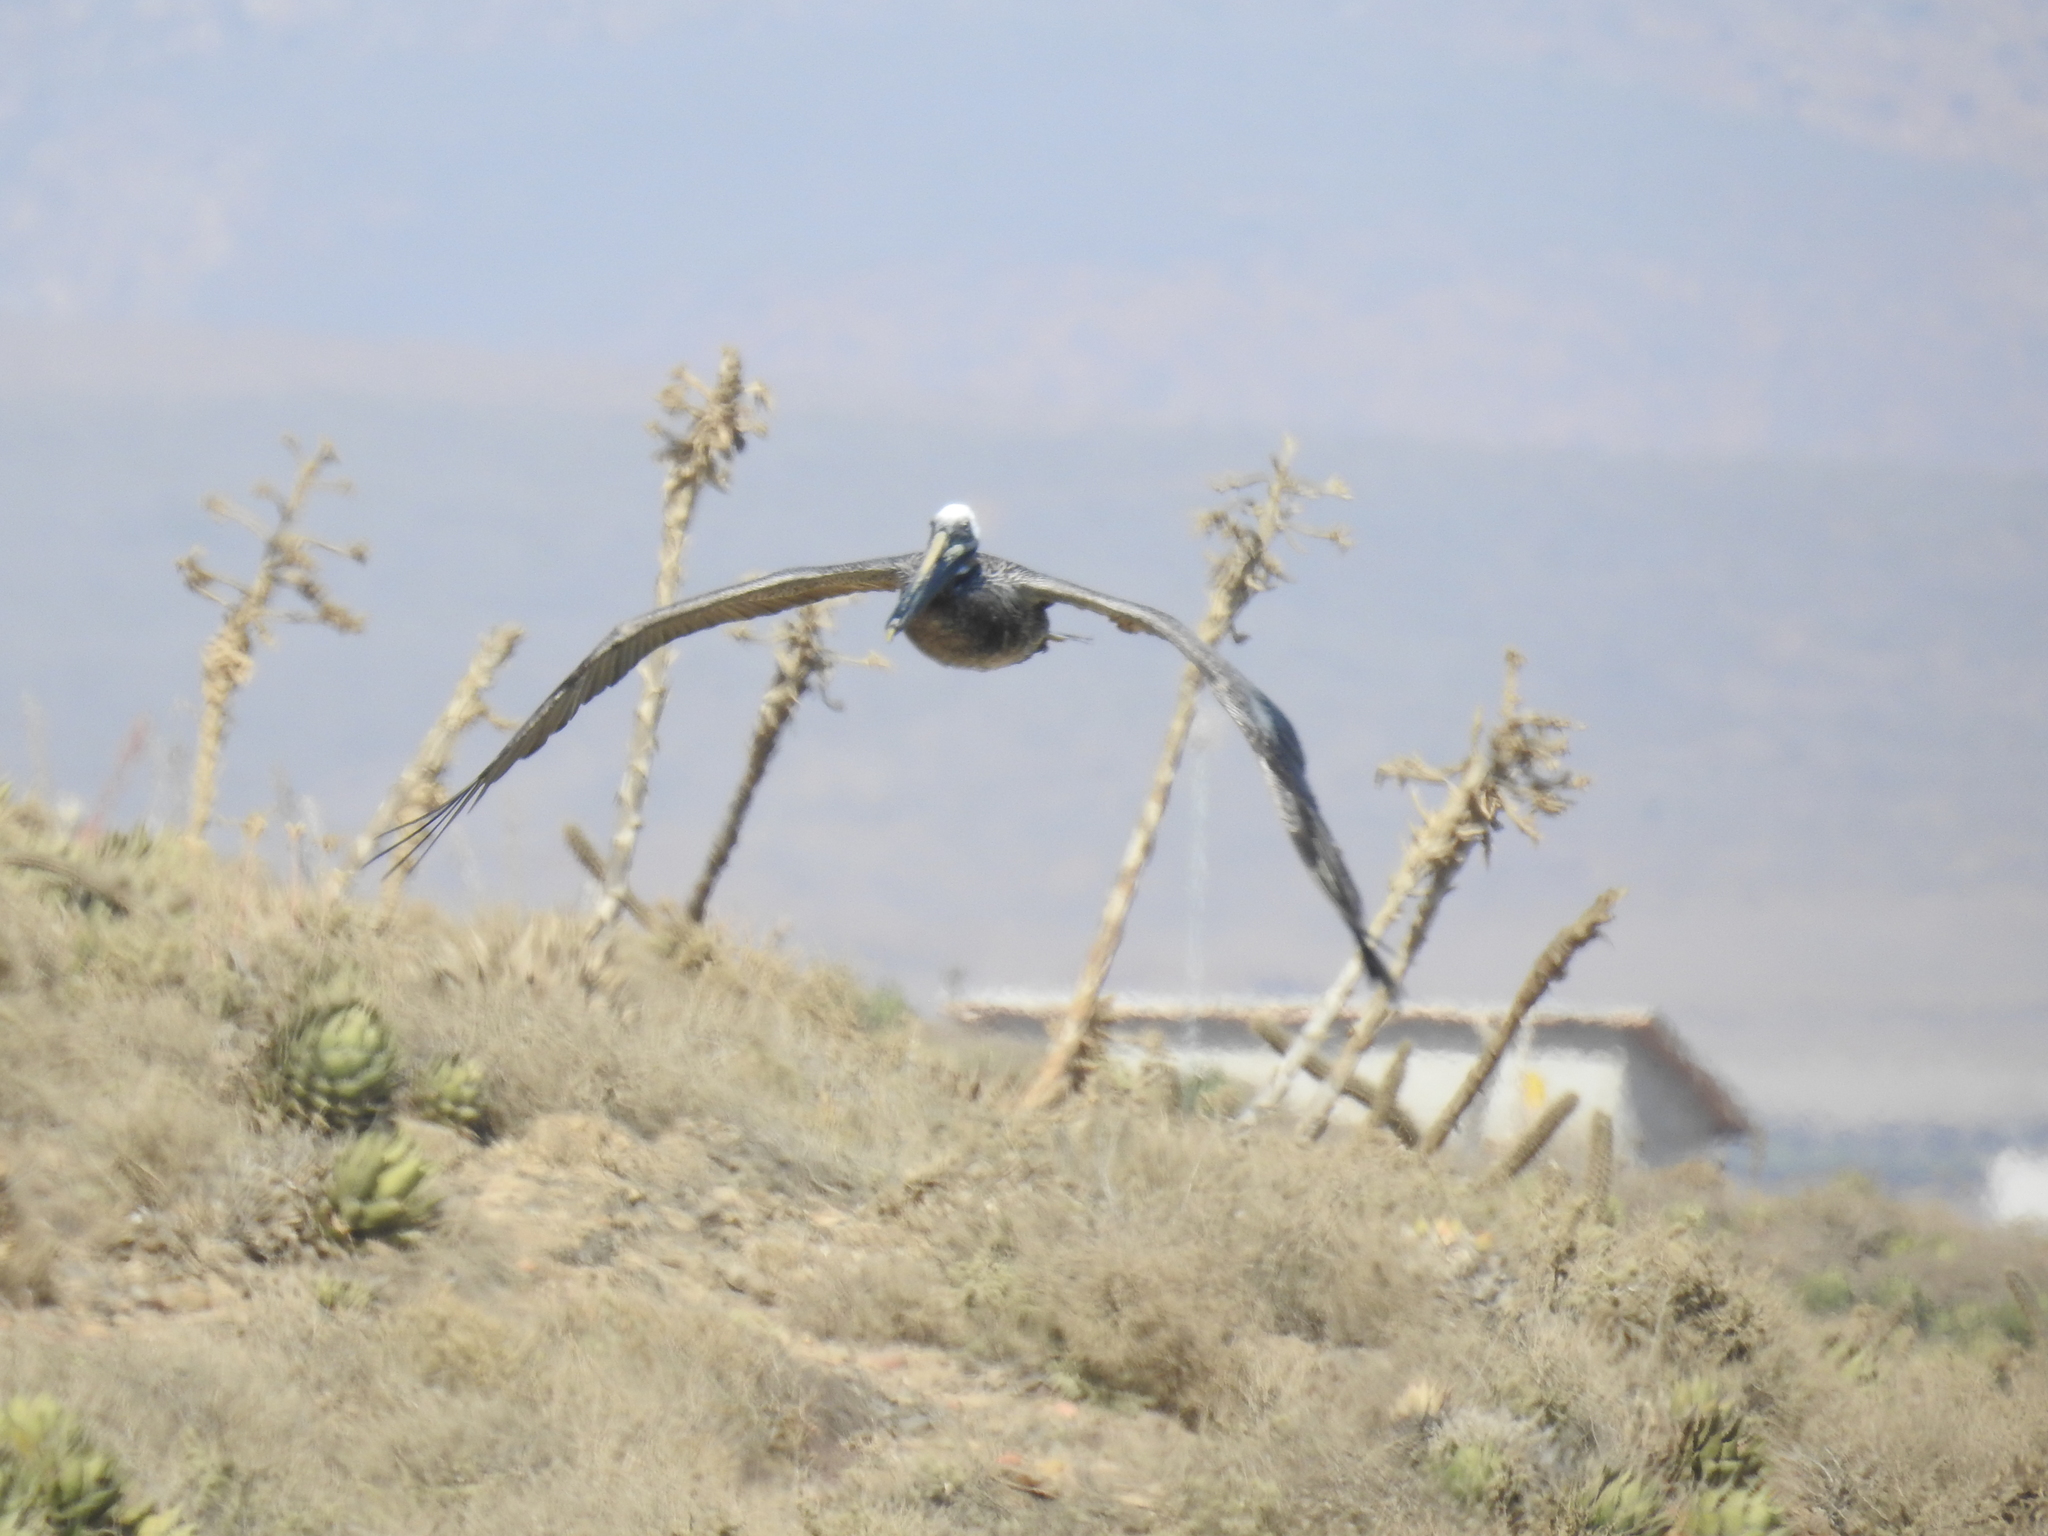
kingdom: Animalia
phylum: Chordata
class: Aves
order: Pelecaniformes
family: Pelecanidae
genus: Pelecanus
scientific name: Pelecanus occidentalis
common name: Brown pelican
